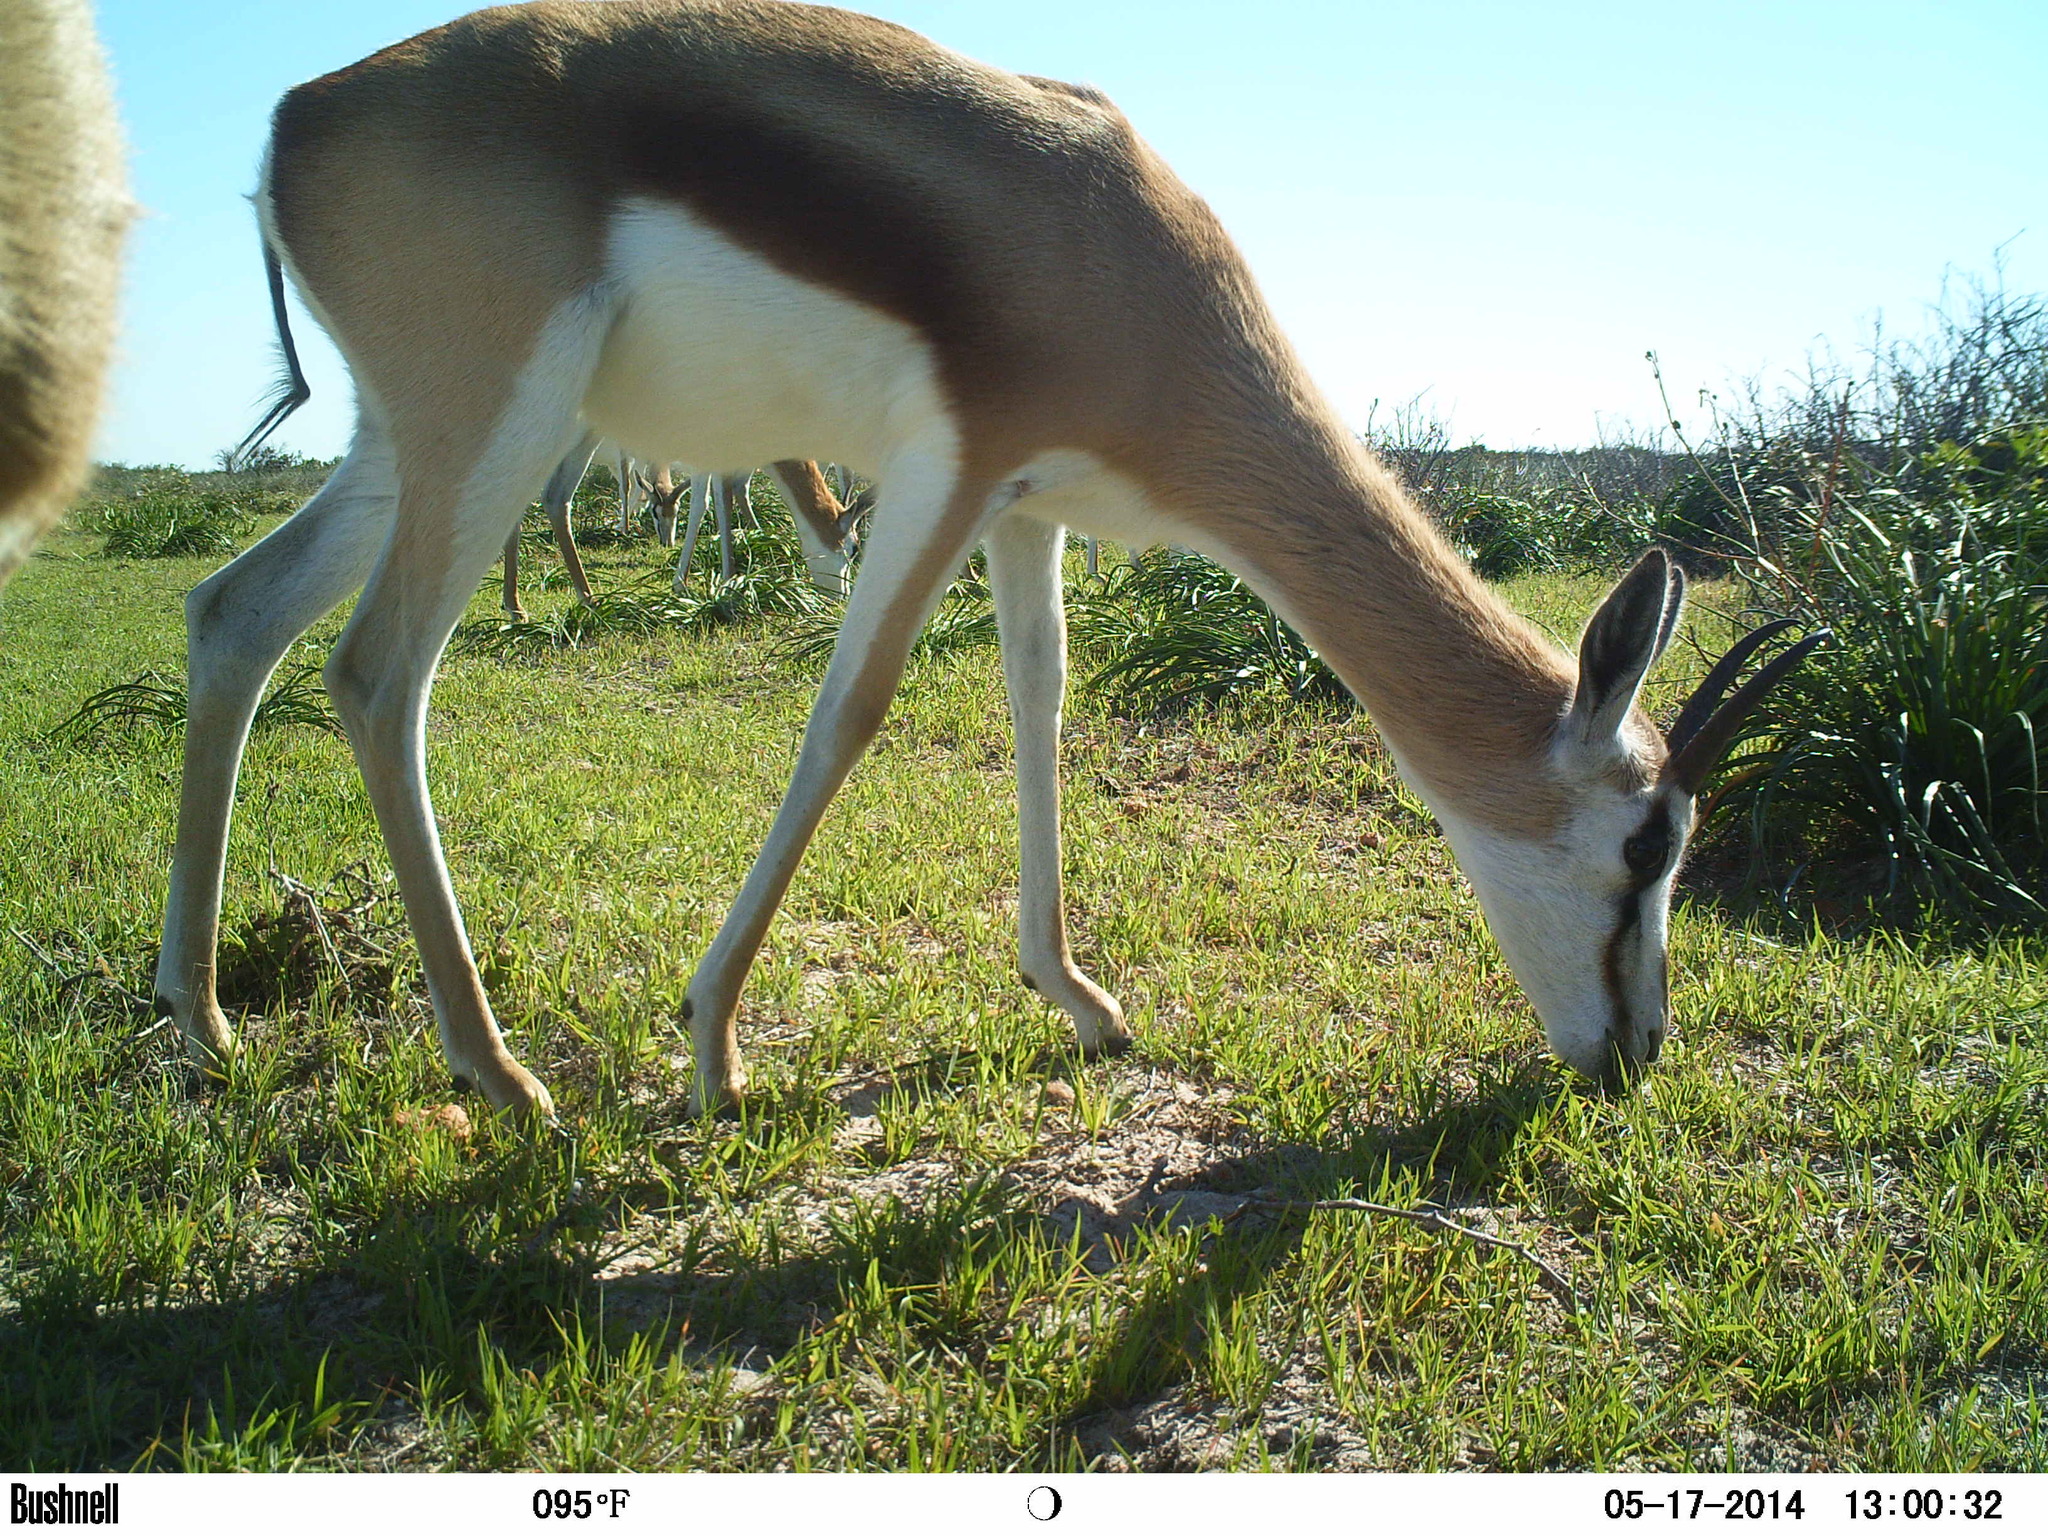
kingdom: Animalia
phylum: Chordata
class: Mammalia
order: Artiodactyla
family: Bovidae
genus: Antidorcas
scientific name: Antidorcas marsupialis
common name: Springbok
